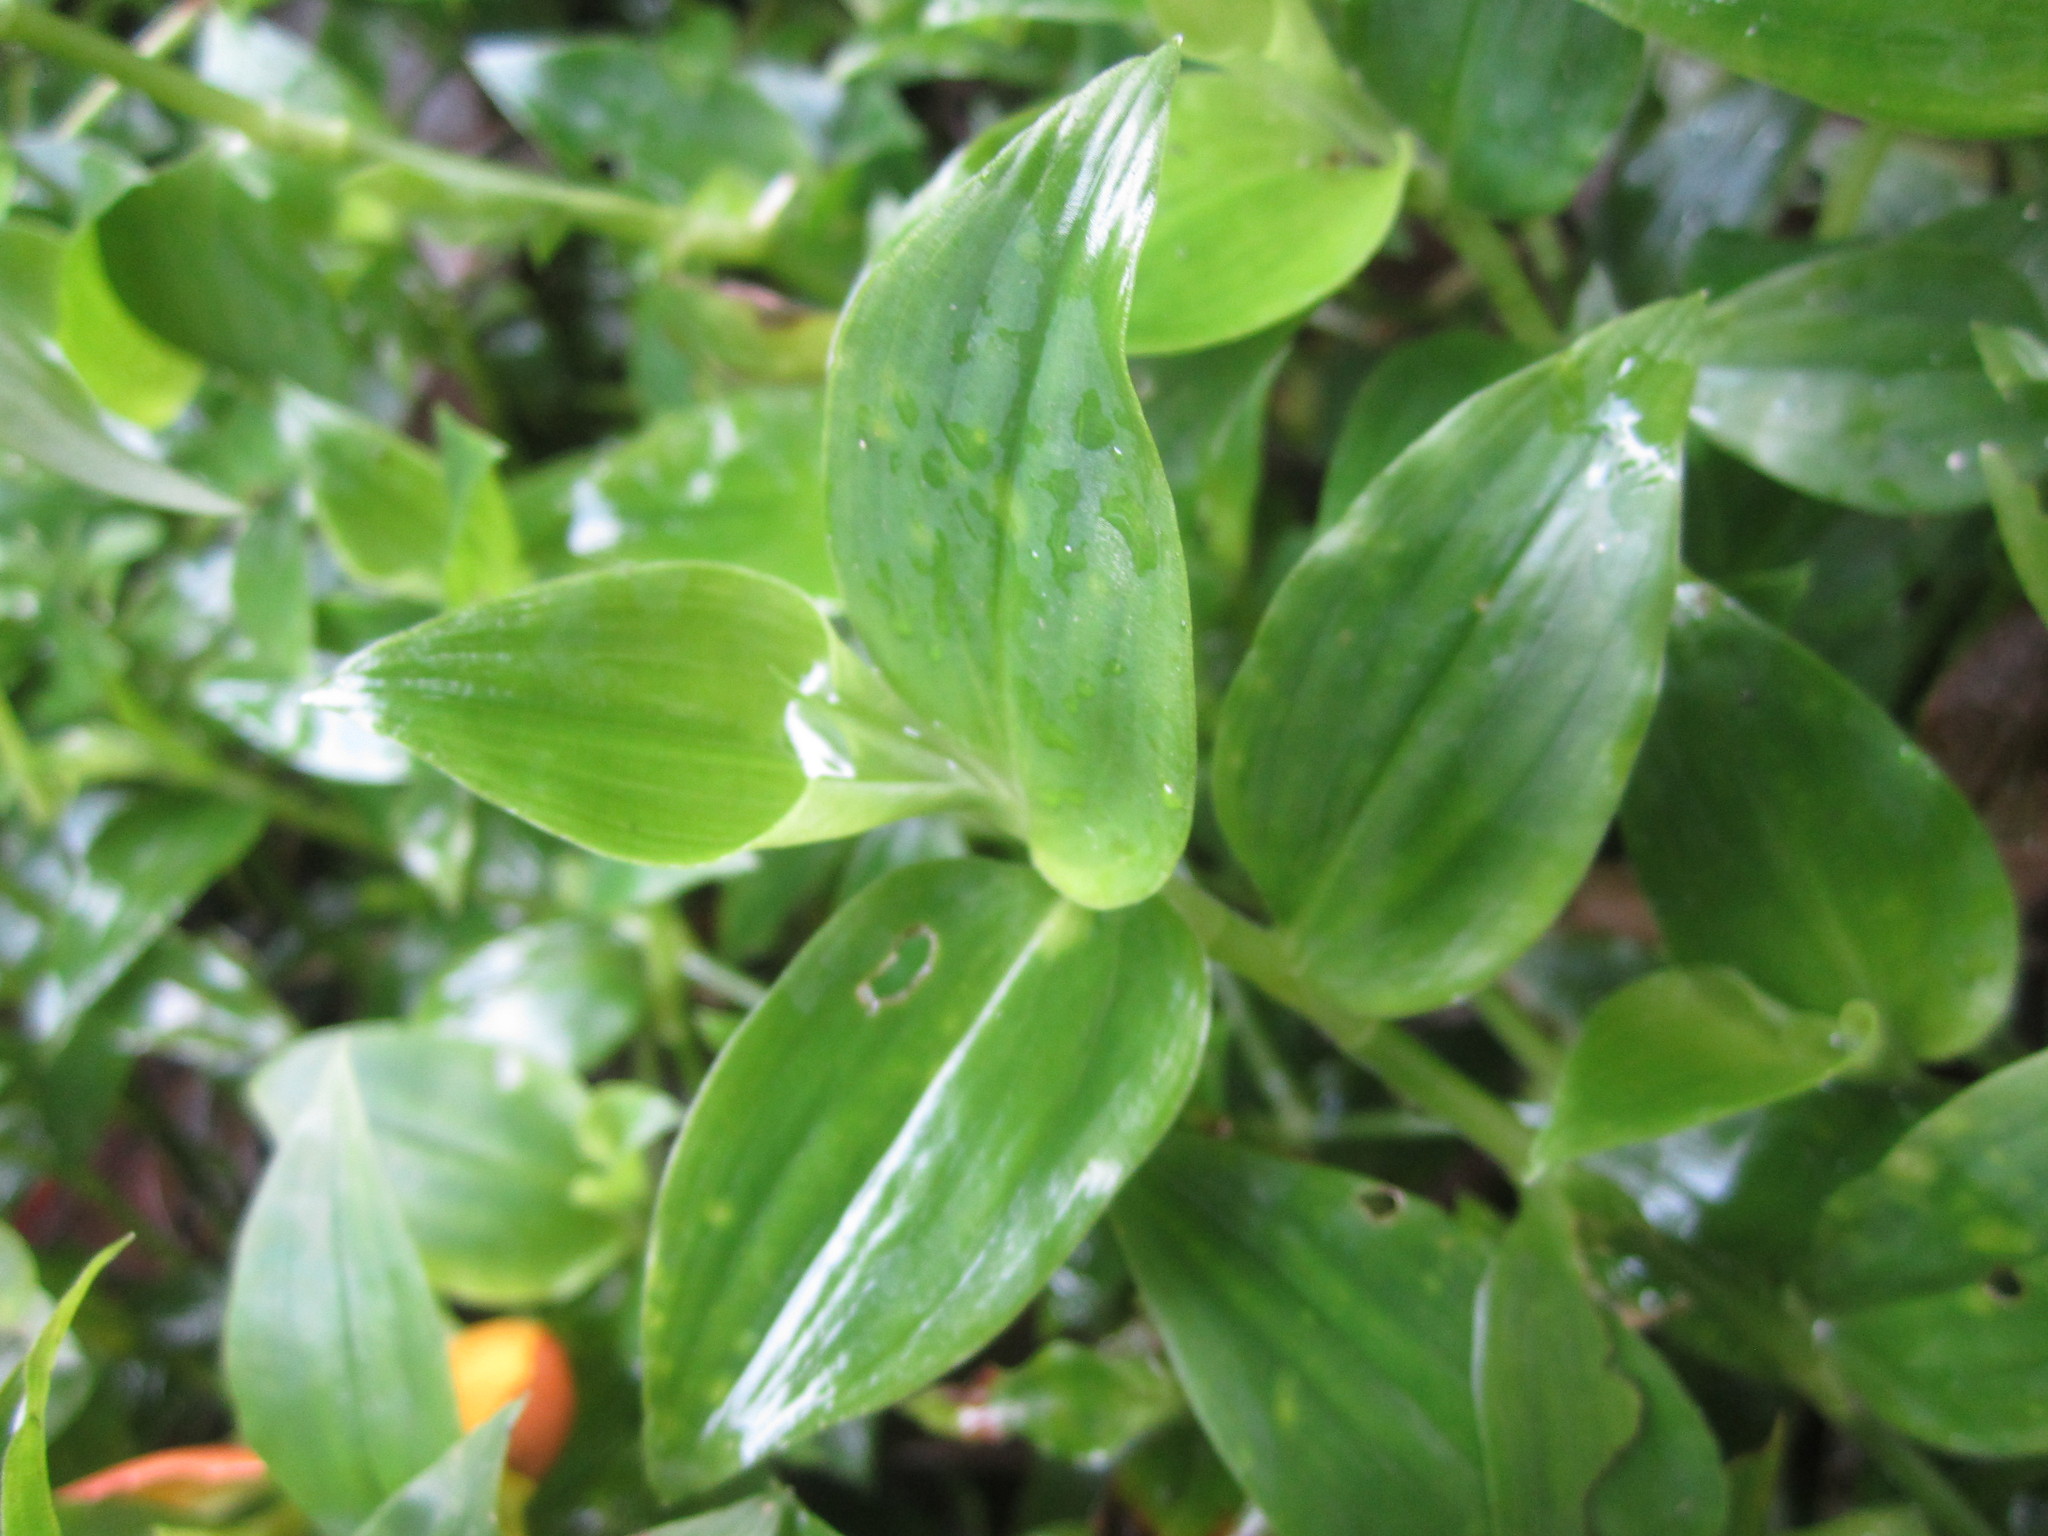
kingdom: Plantae
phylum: Tracheophyta
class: Liliopsida
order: Commelinales
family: Commelinaceae
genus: Tradescantia
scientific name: Tradescantia fluminensis
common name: Wandering-jew
